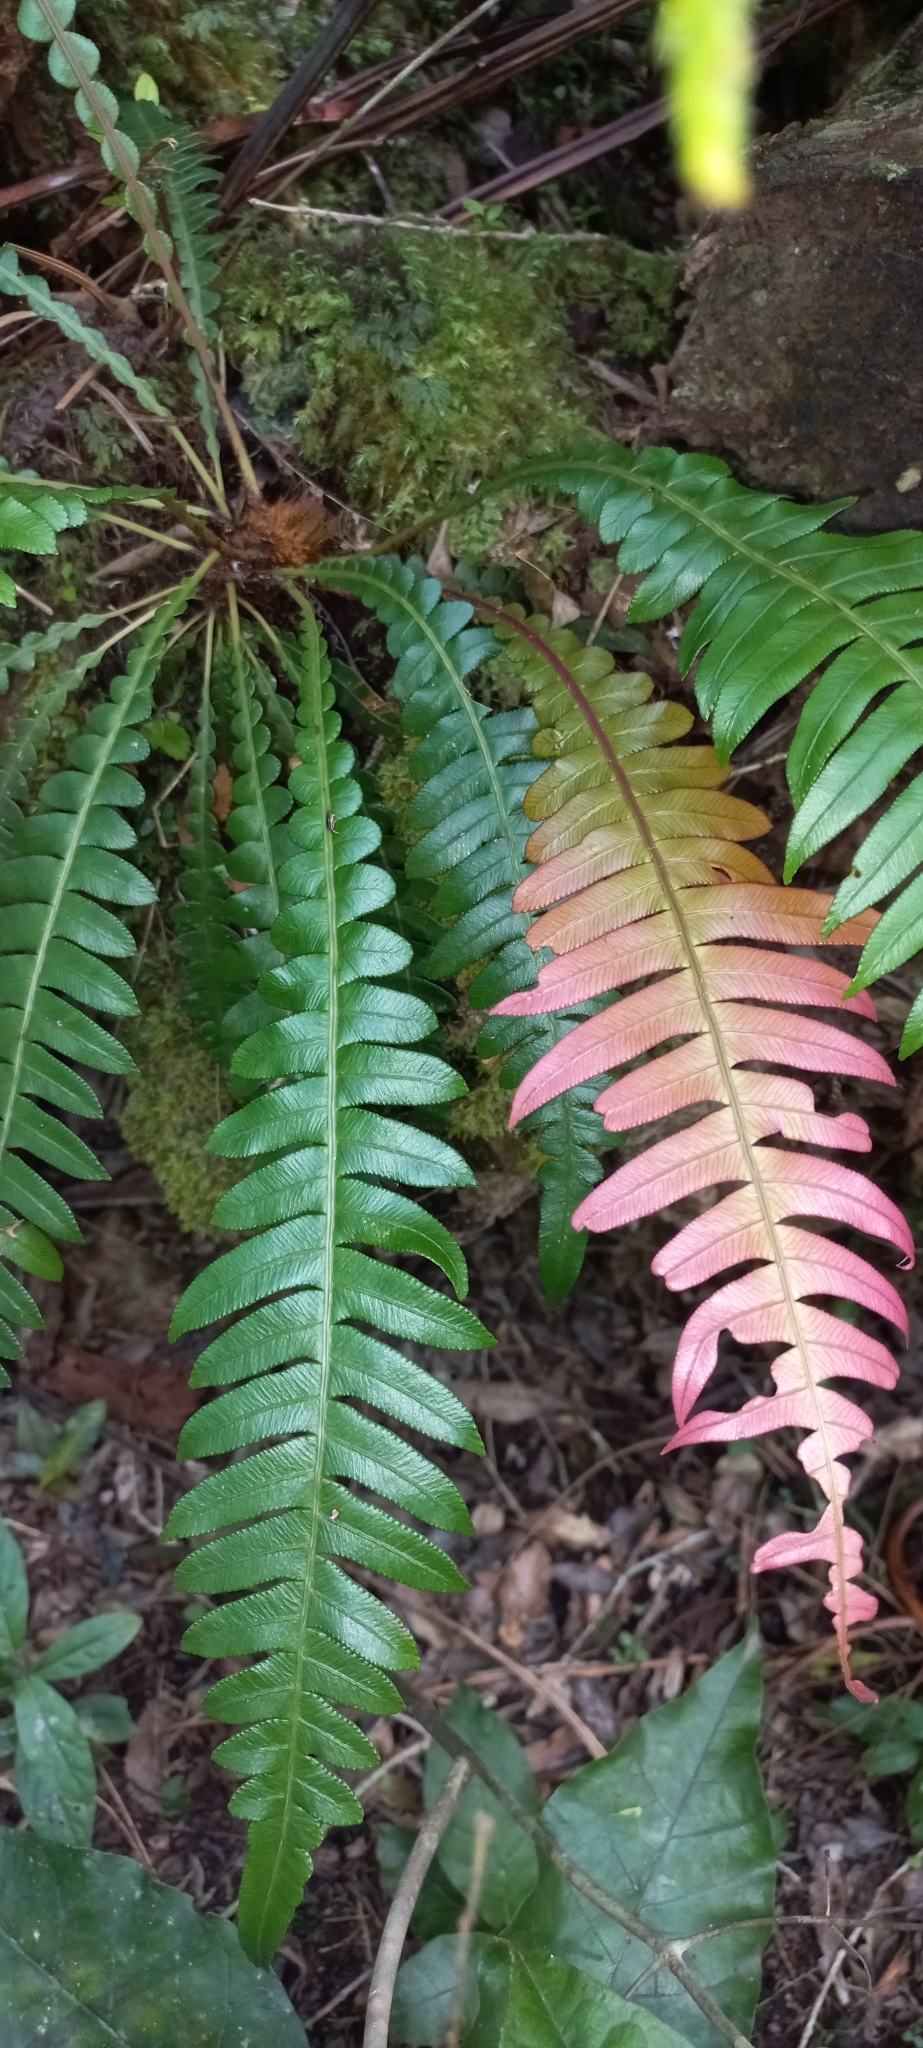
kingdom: Plantae
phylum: Tracheophyta
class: Polypodiopsida
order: Polypodiales
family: Blechnaceae
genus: Lomaridium
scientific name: Lomaridium attenuatum
